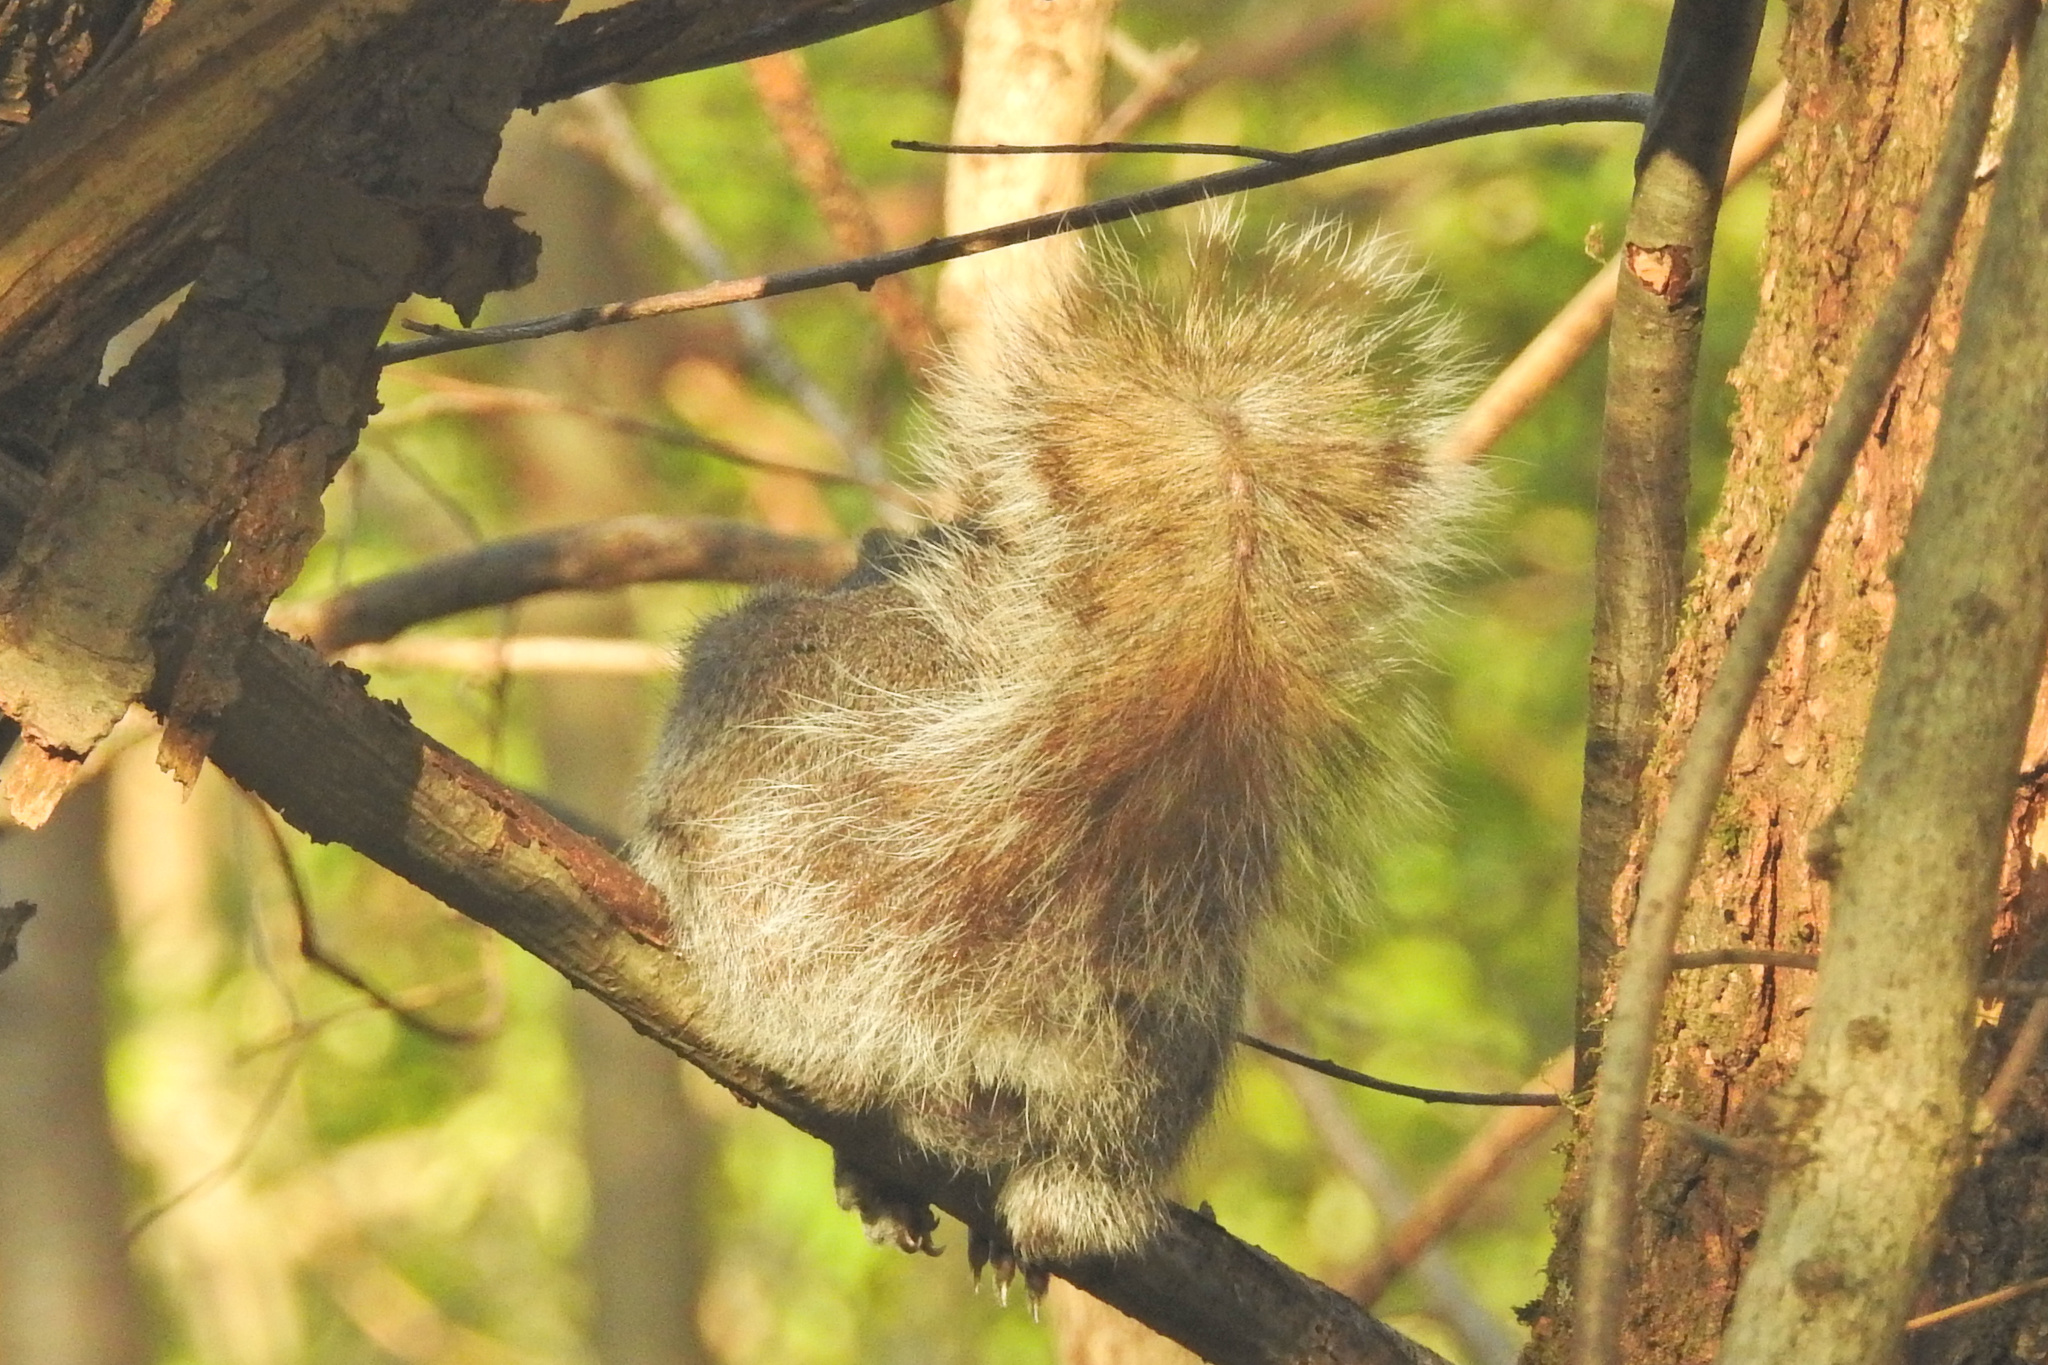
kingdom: Animalia
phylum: Chordata
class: Mammalia
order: Rodentia
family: Sciuridae
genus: Sciurus
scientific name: Sciurus carolinensis
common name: Eastern gray squirrel
